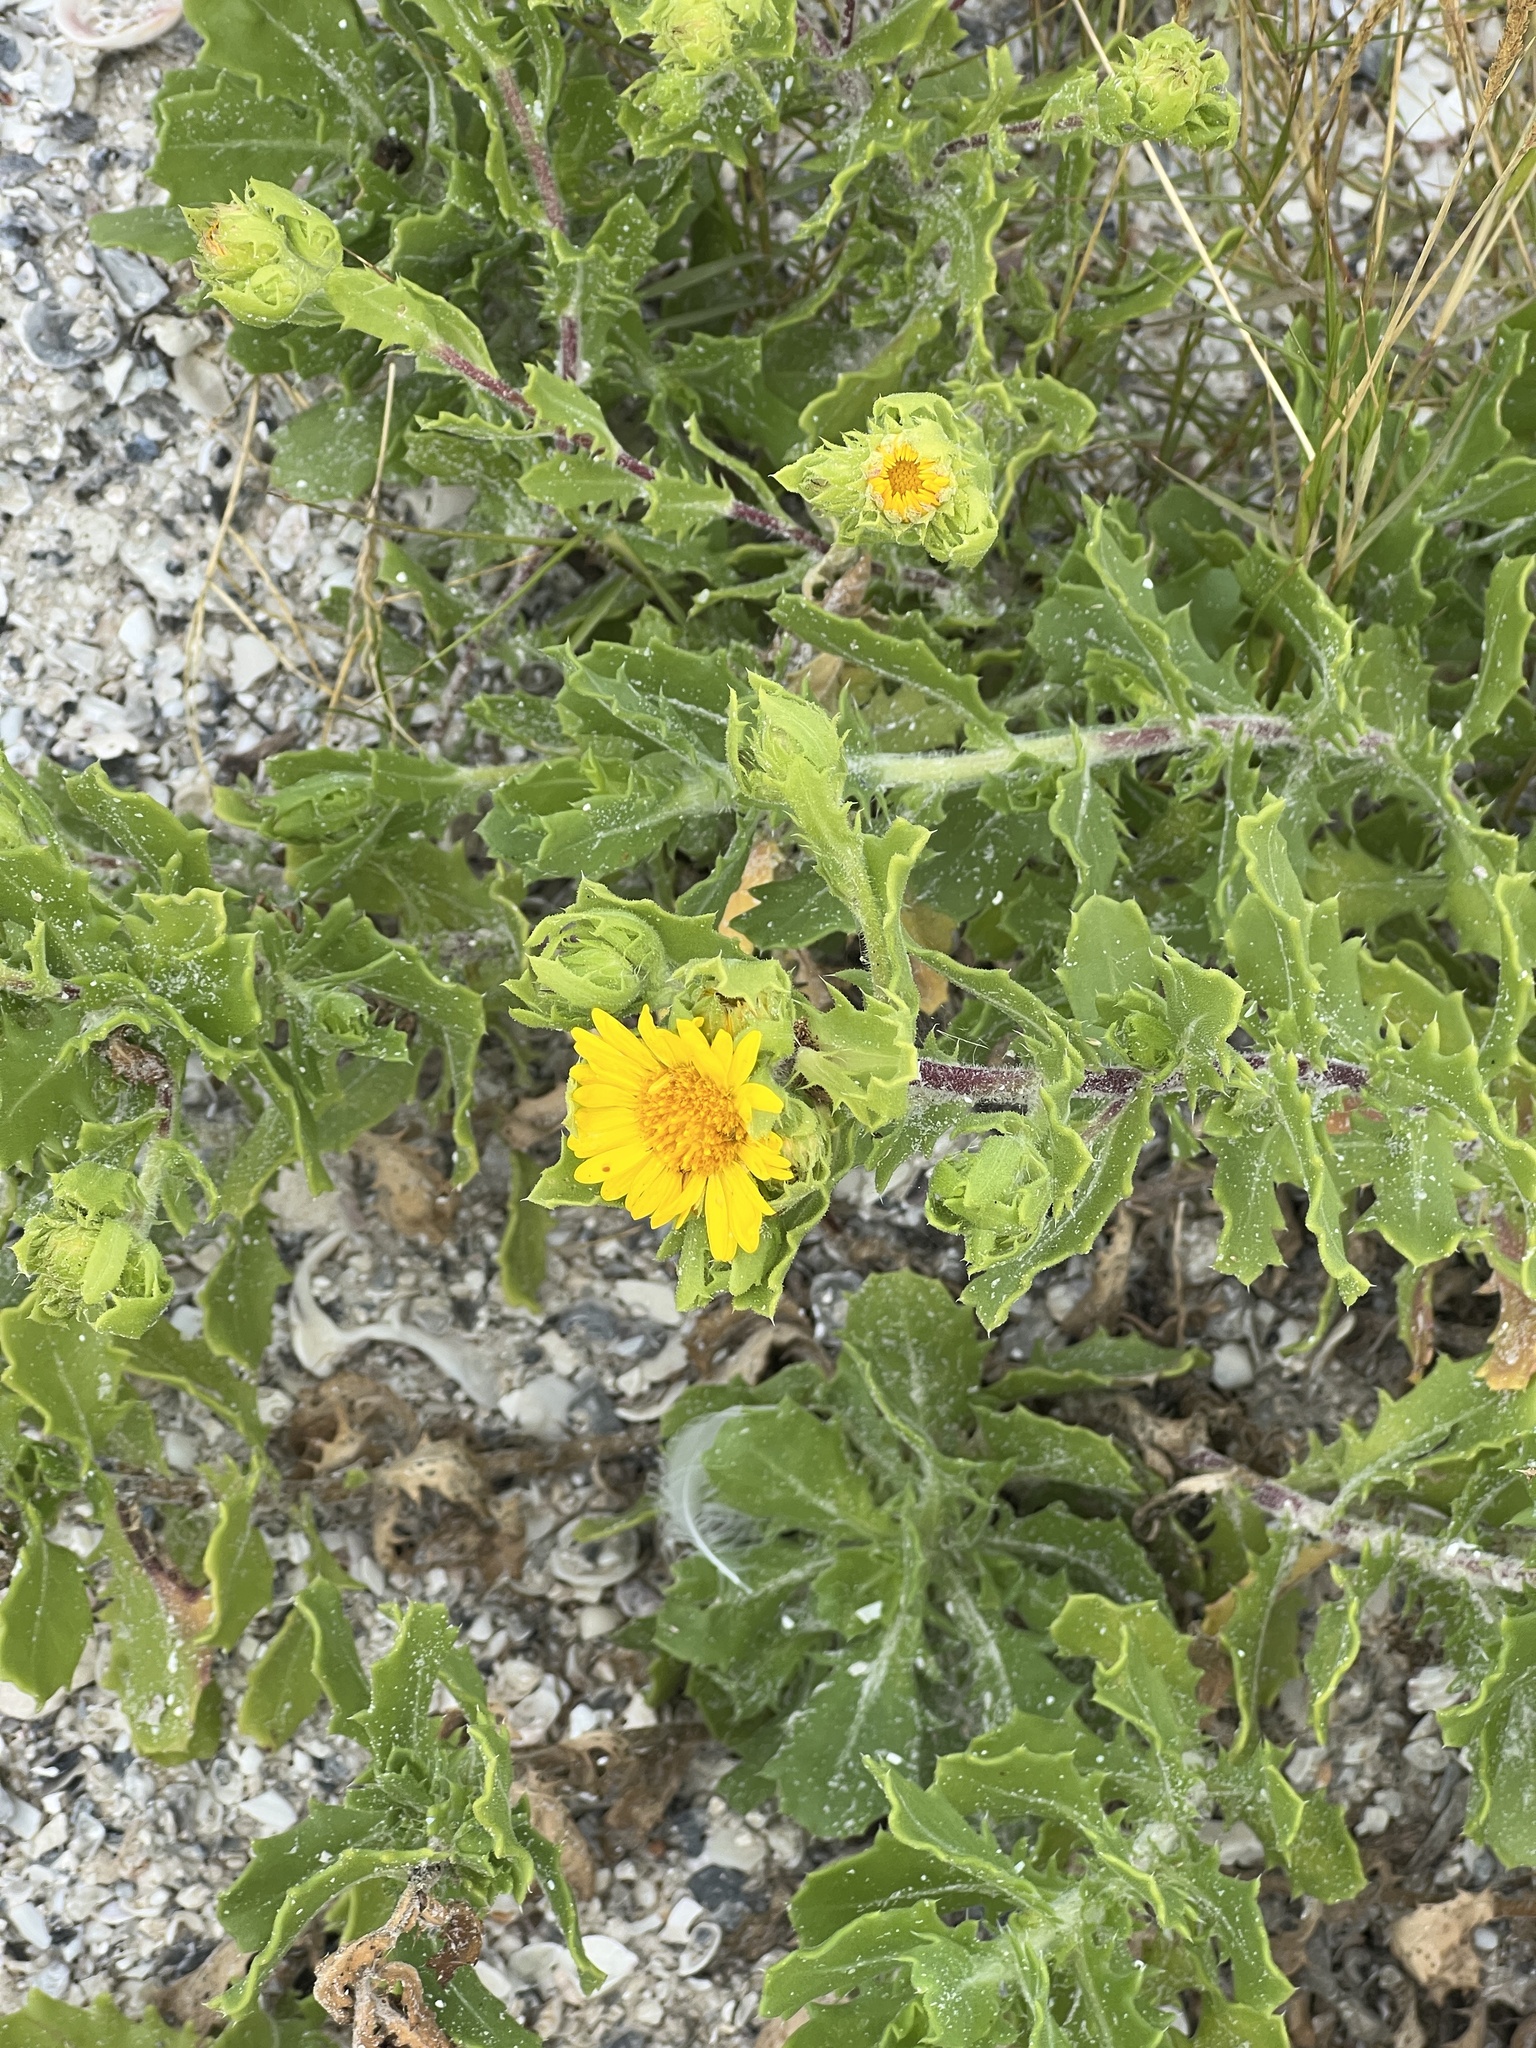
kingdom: Plantae
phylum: Tracheophyta
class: Magnoliopsida
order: Asterales
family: Asteraceae
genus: Rayjacksonia
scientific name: Rayjacksonia phyllocephala
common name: Gulf coast camphor daisy
